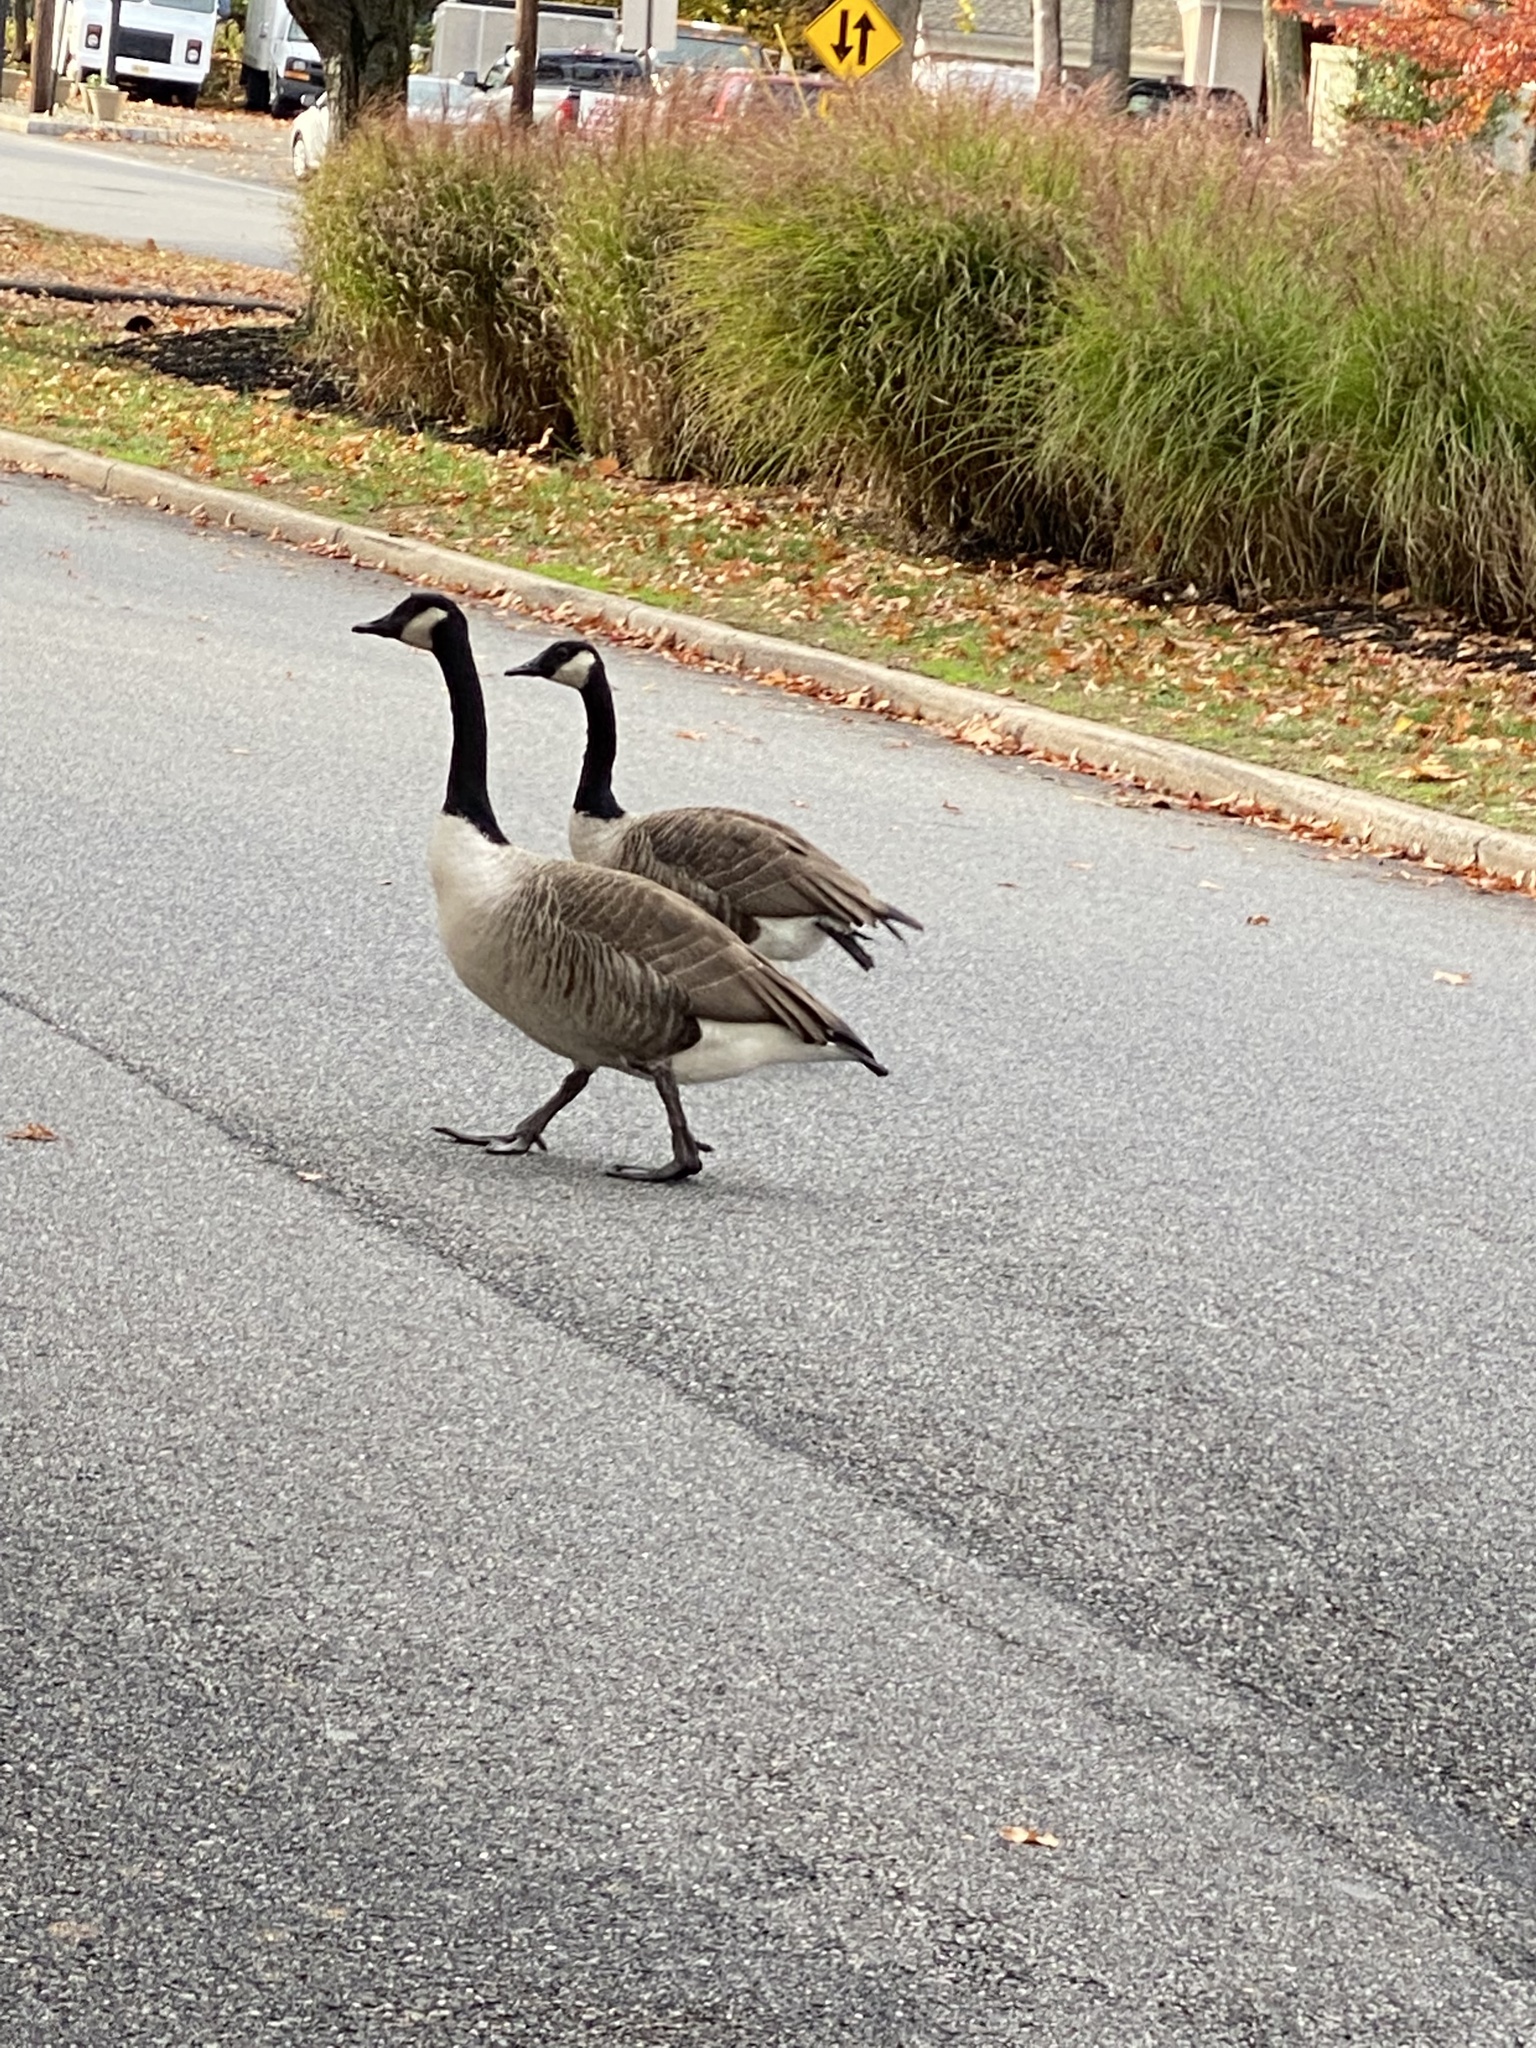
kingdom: Animalia
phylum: Chordata
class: Aves
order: Anseriformes
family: Anatidae
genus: Branta
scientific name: Branta canadensis
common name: Canada goose
